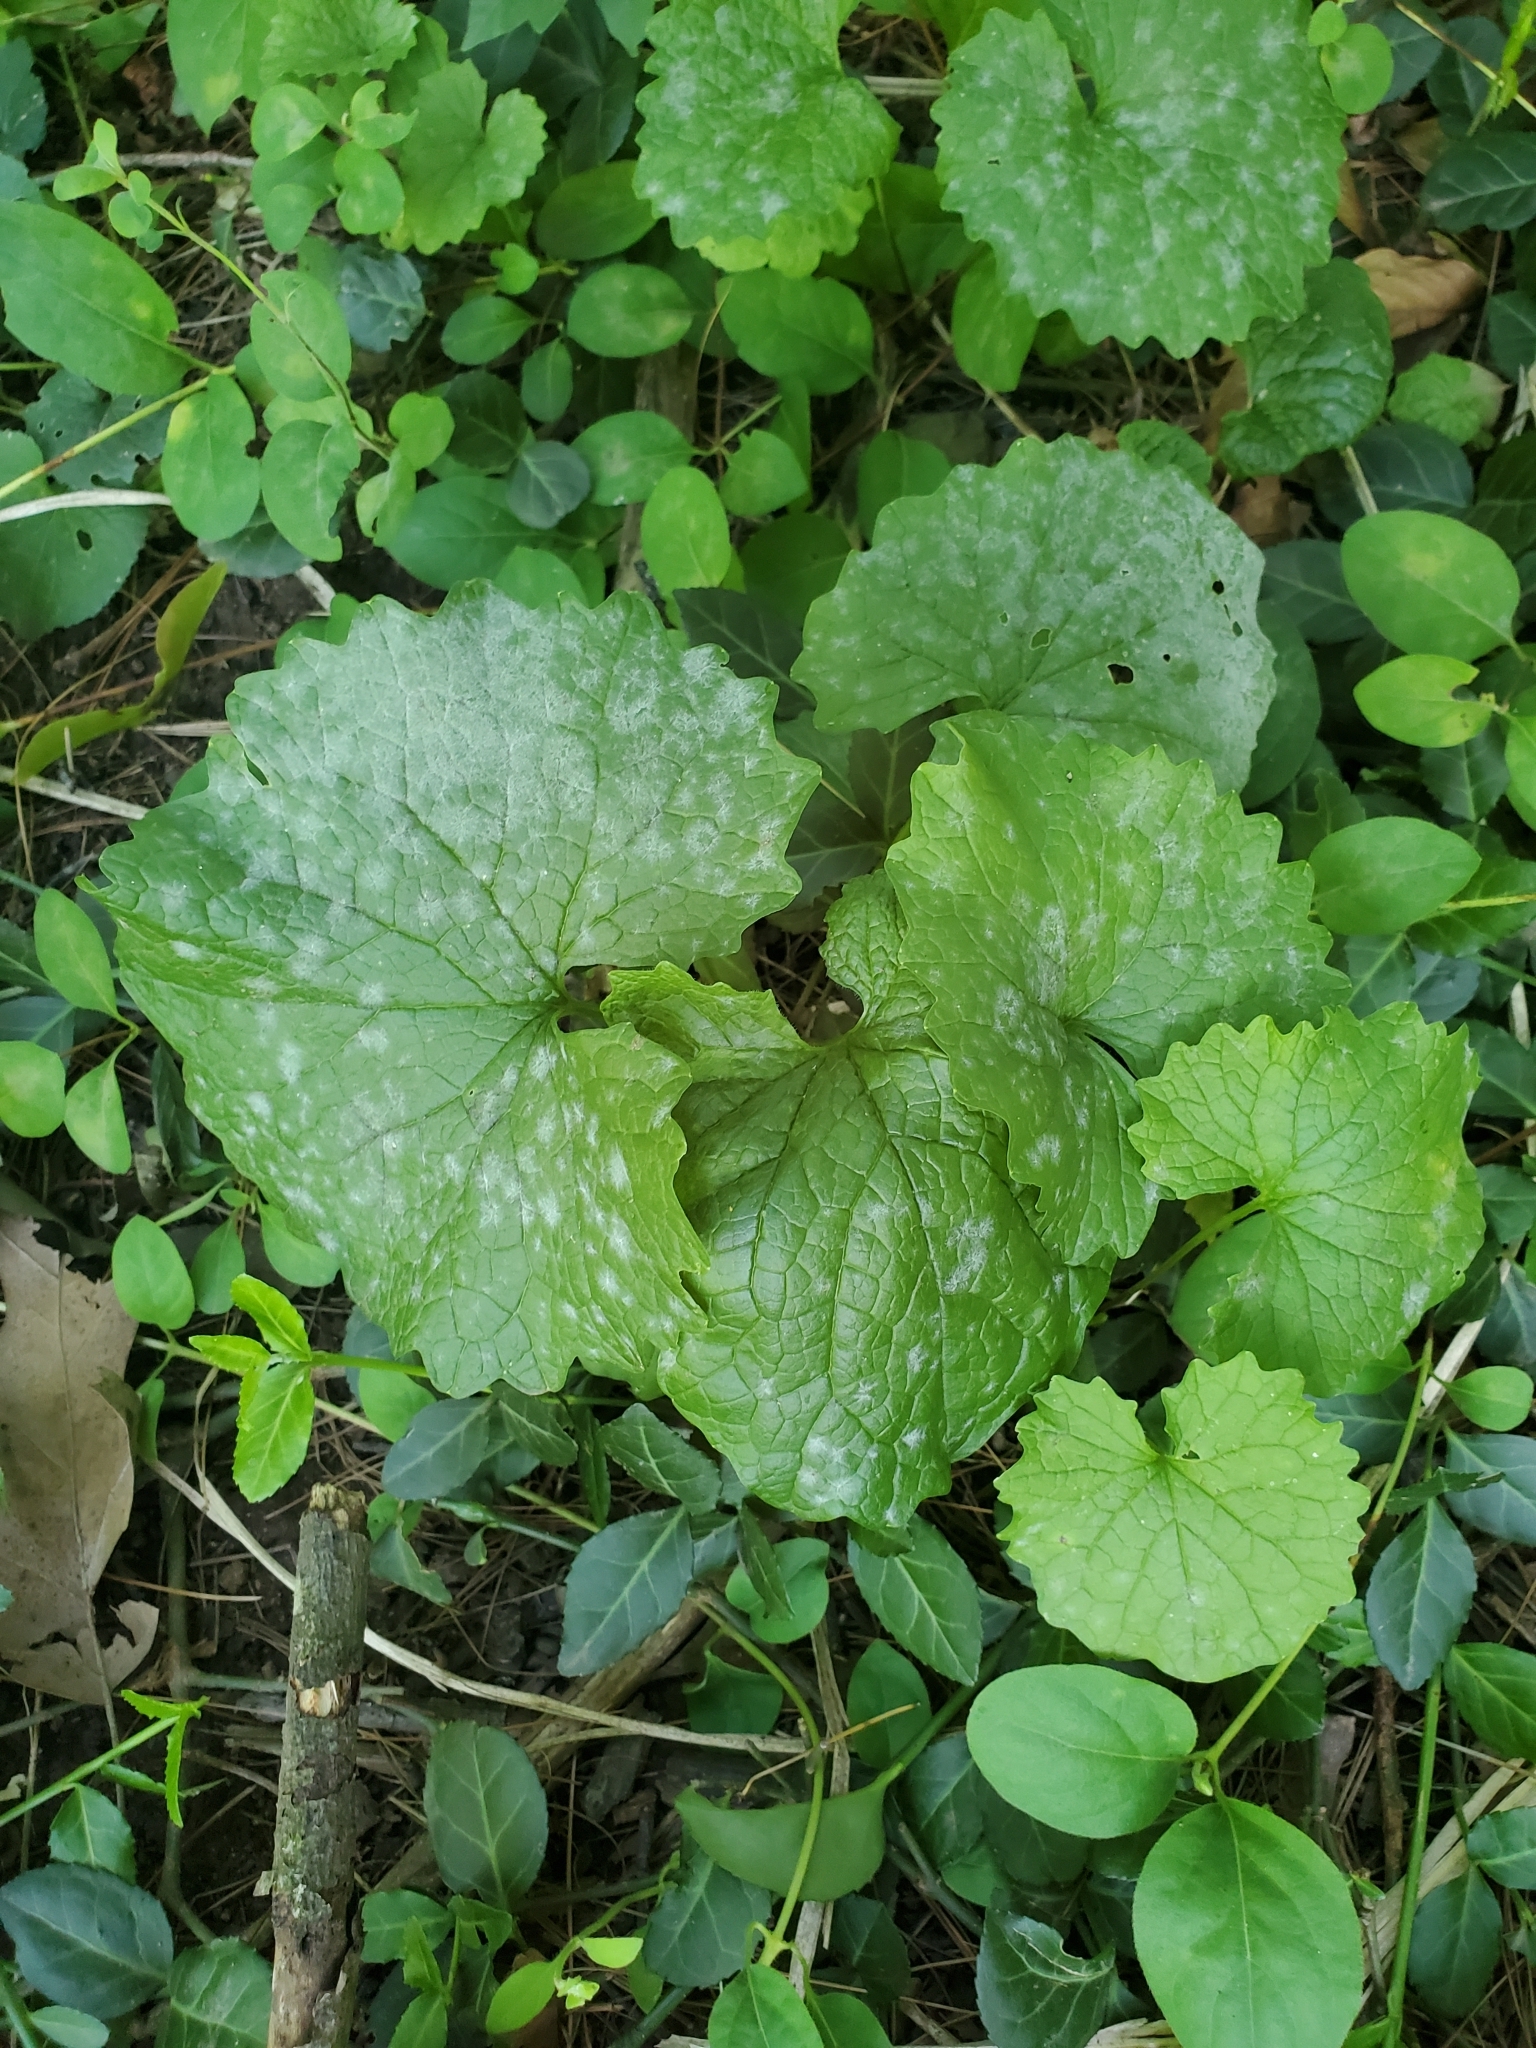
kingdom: Plantae
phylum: Tracheophyta
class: Magnoliopsida
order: Brassicales
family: Brassicaceae
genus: Alliaria
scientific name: Alliaria petiolata
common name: Garlic mustard
